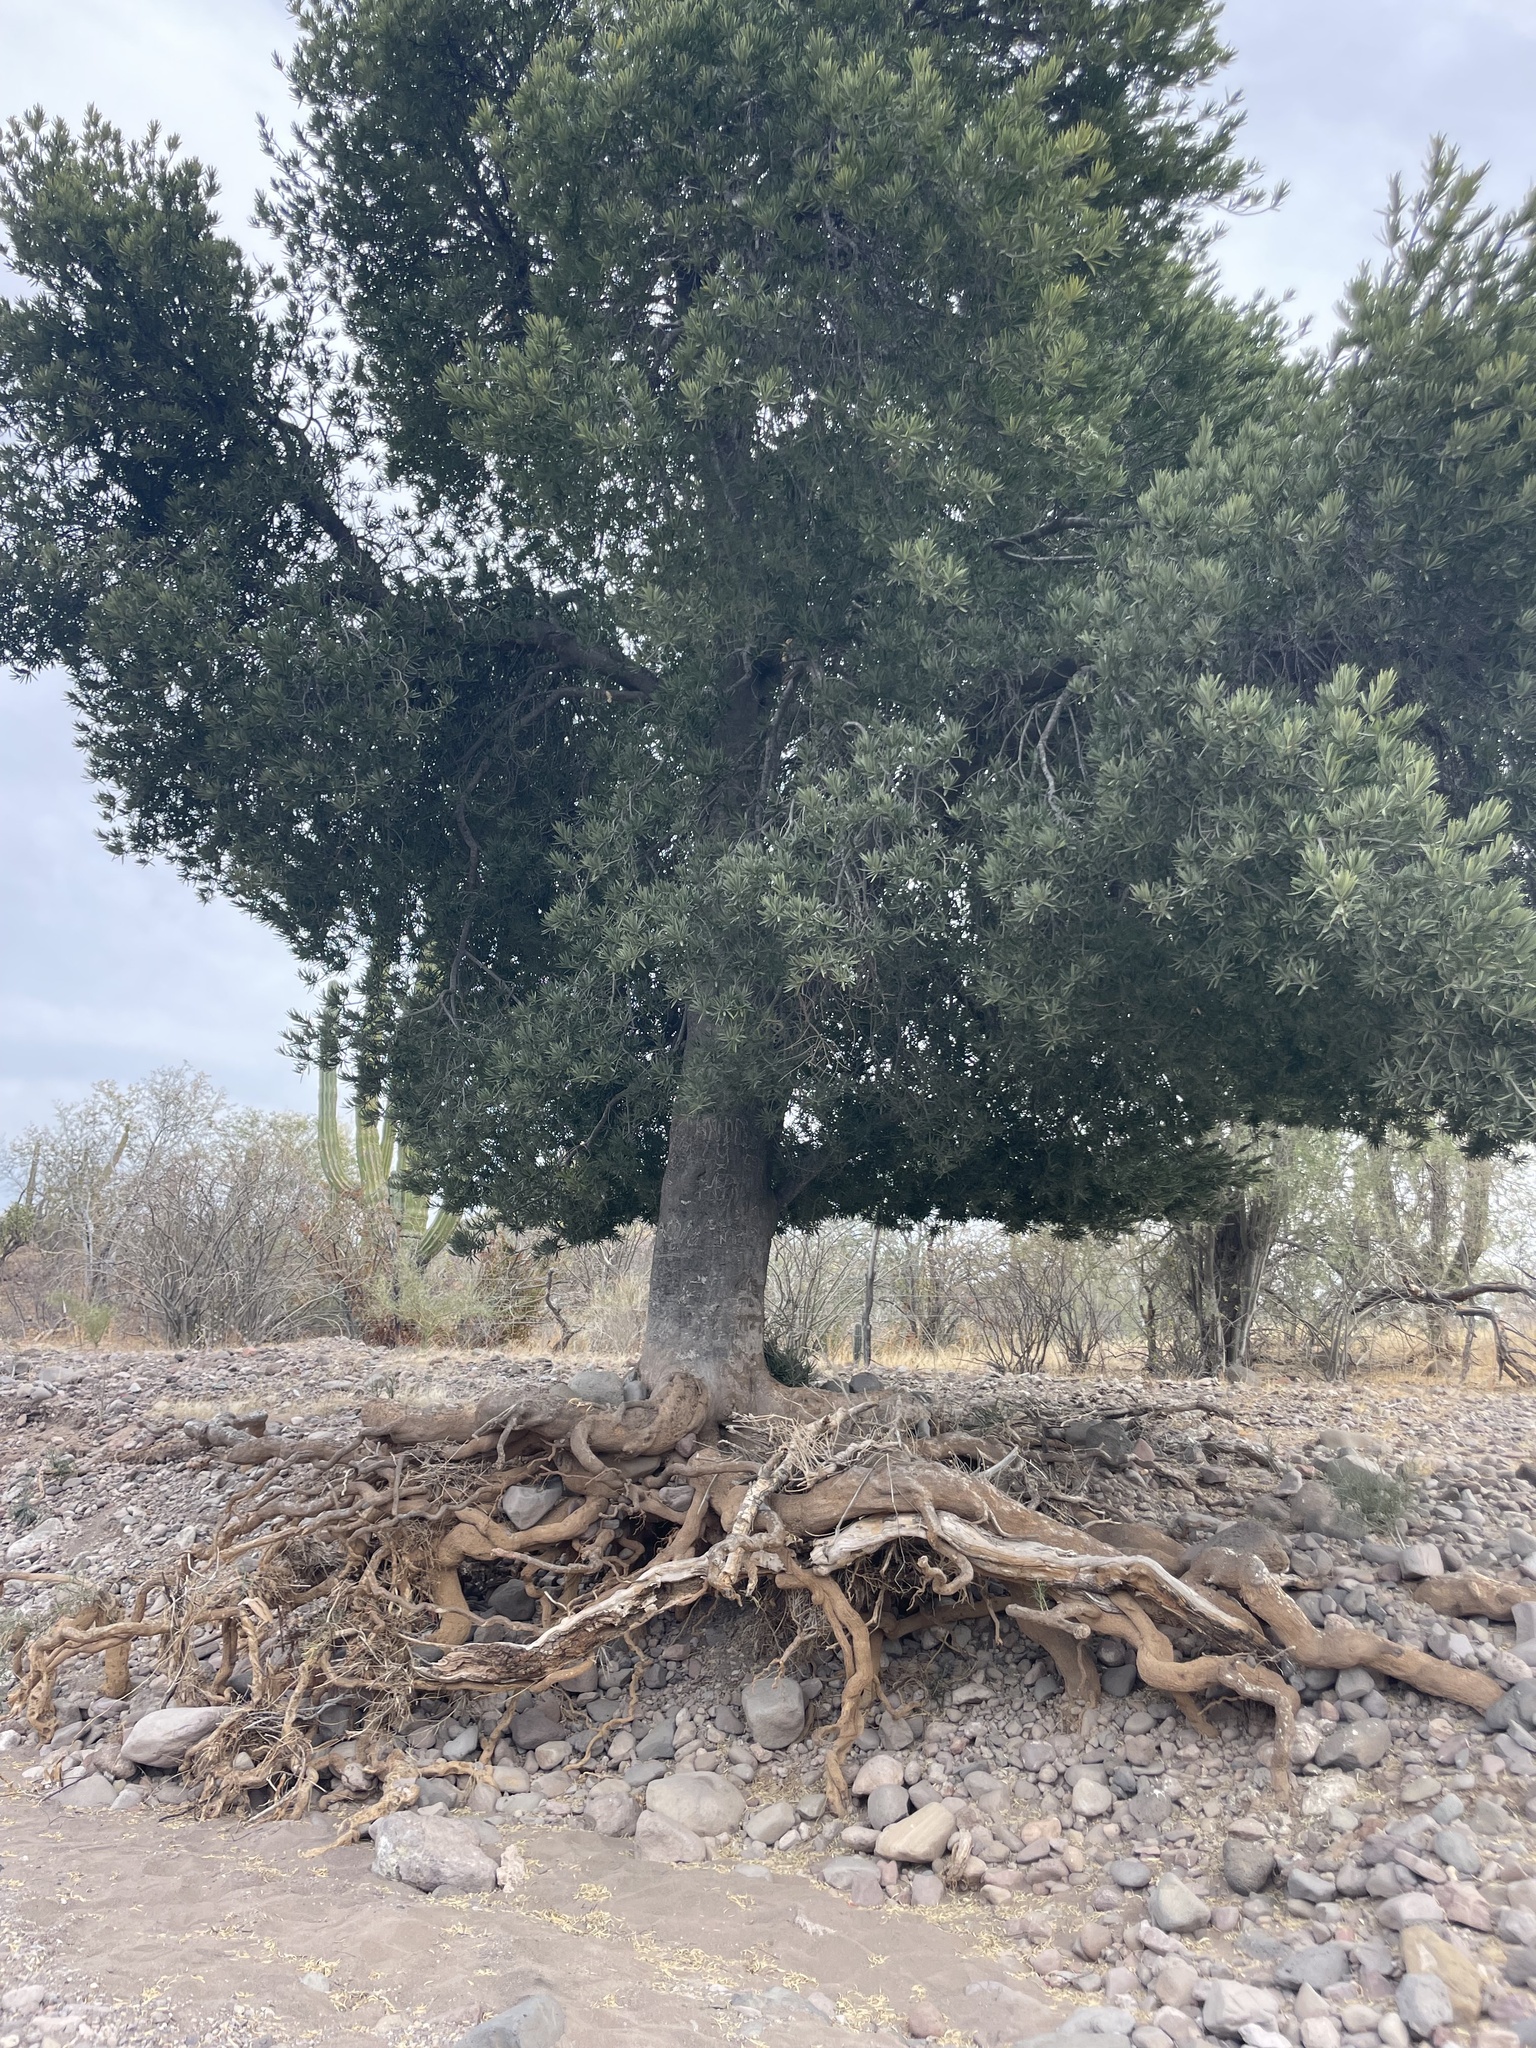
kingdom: Plantae
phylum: Tracheophyta
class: Magnoliopsida
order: Brassicales
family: Stixaceae
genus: Forchhammeria
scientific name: Forchhammeria watsonii
